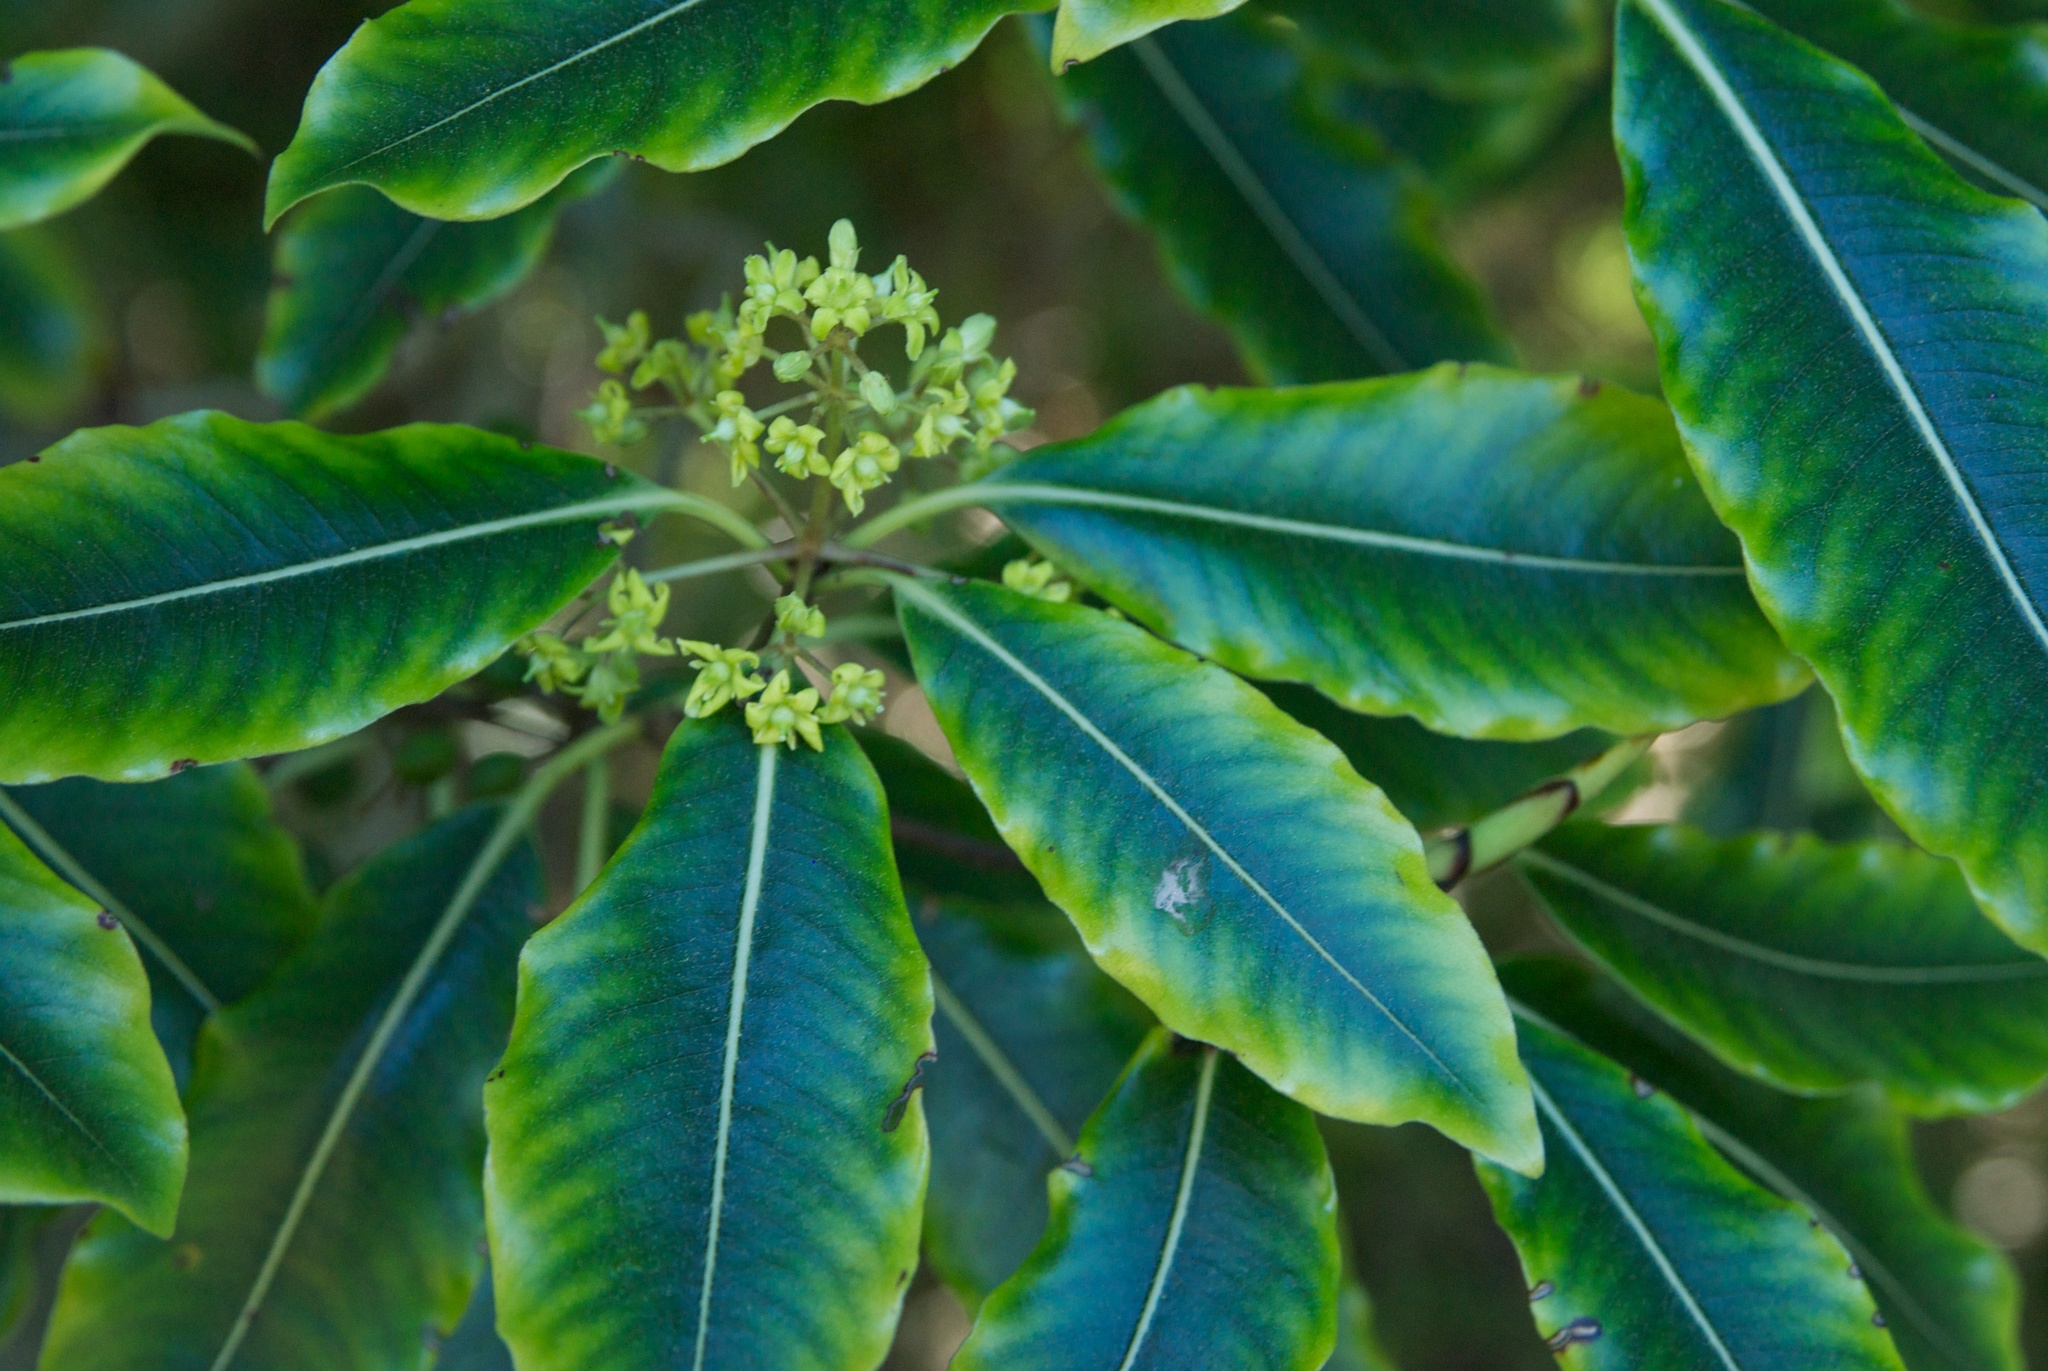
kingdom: Plantae
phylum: Tracheophyta
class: Magnoliopsida
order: Apiales
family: Pittosporaceae
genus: Pittosporum
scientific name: Pittosporum eugenioides
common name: Lemonwood
